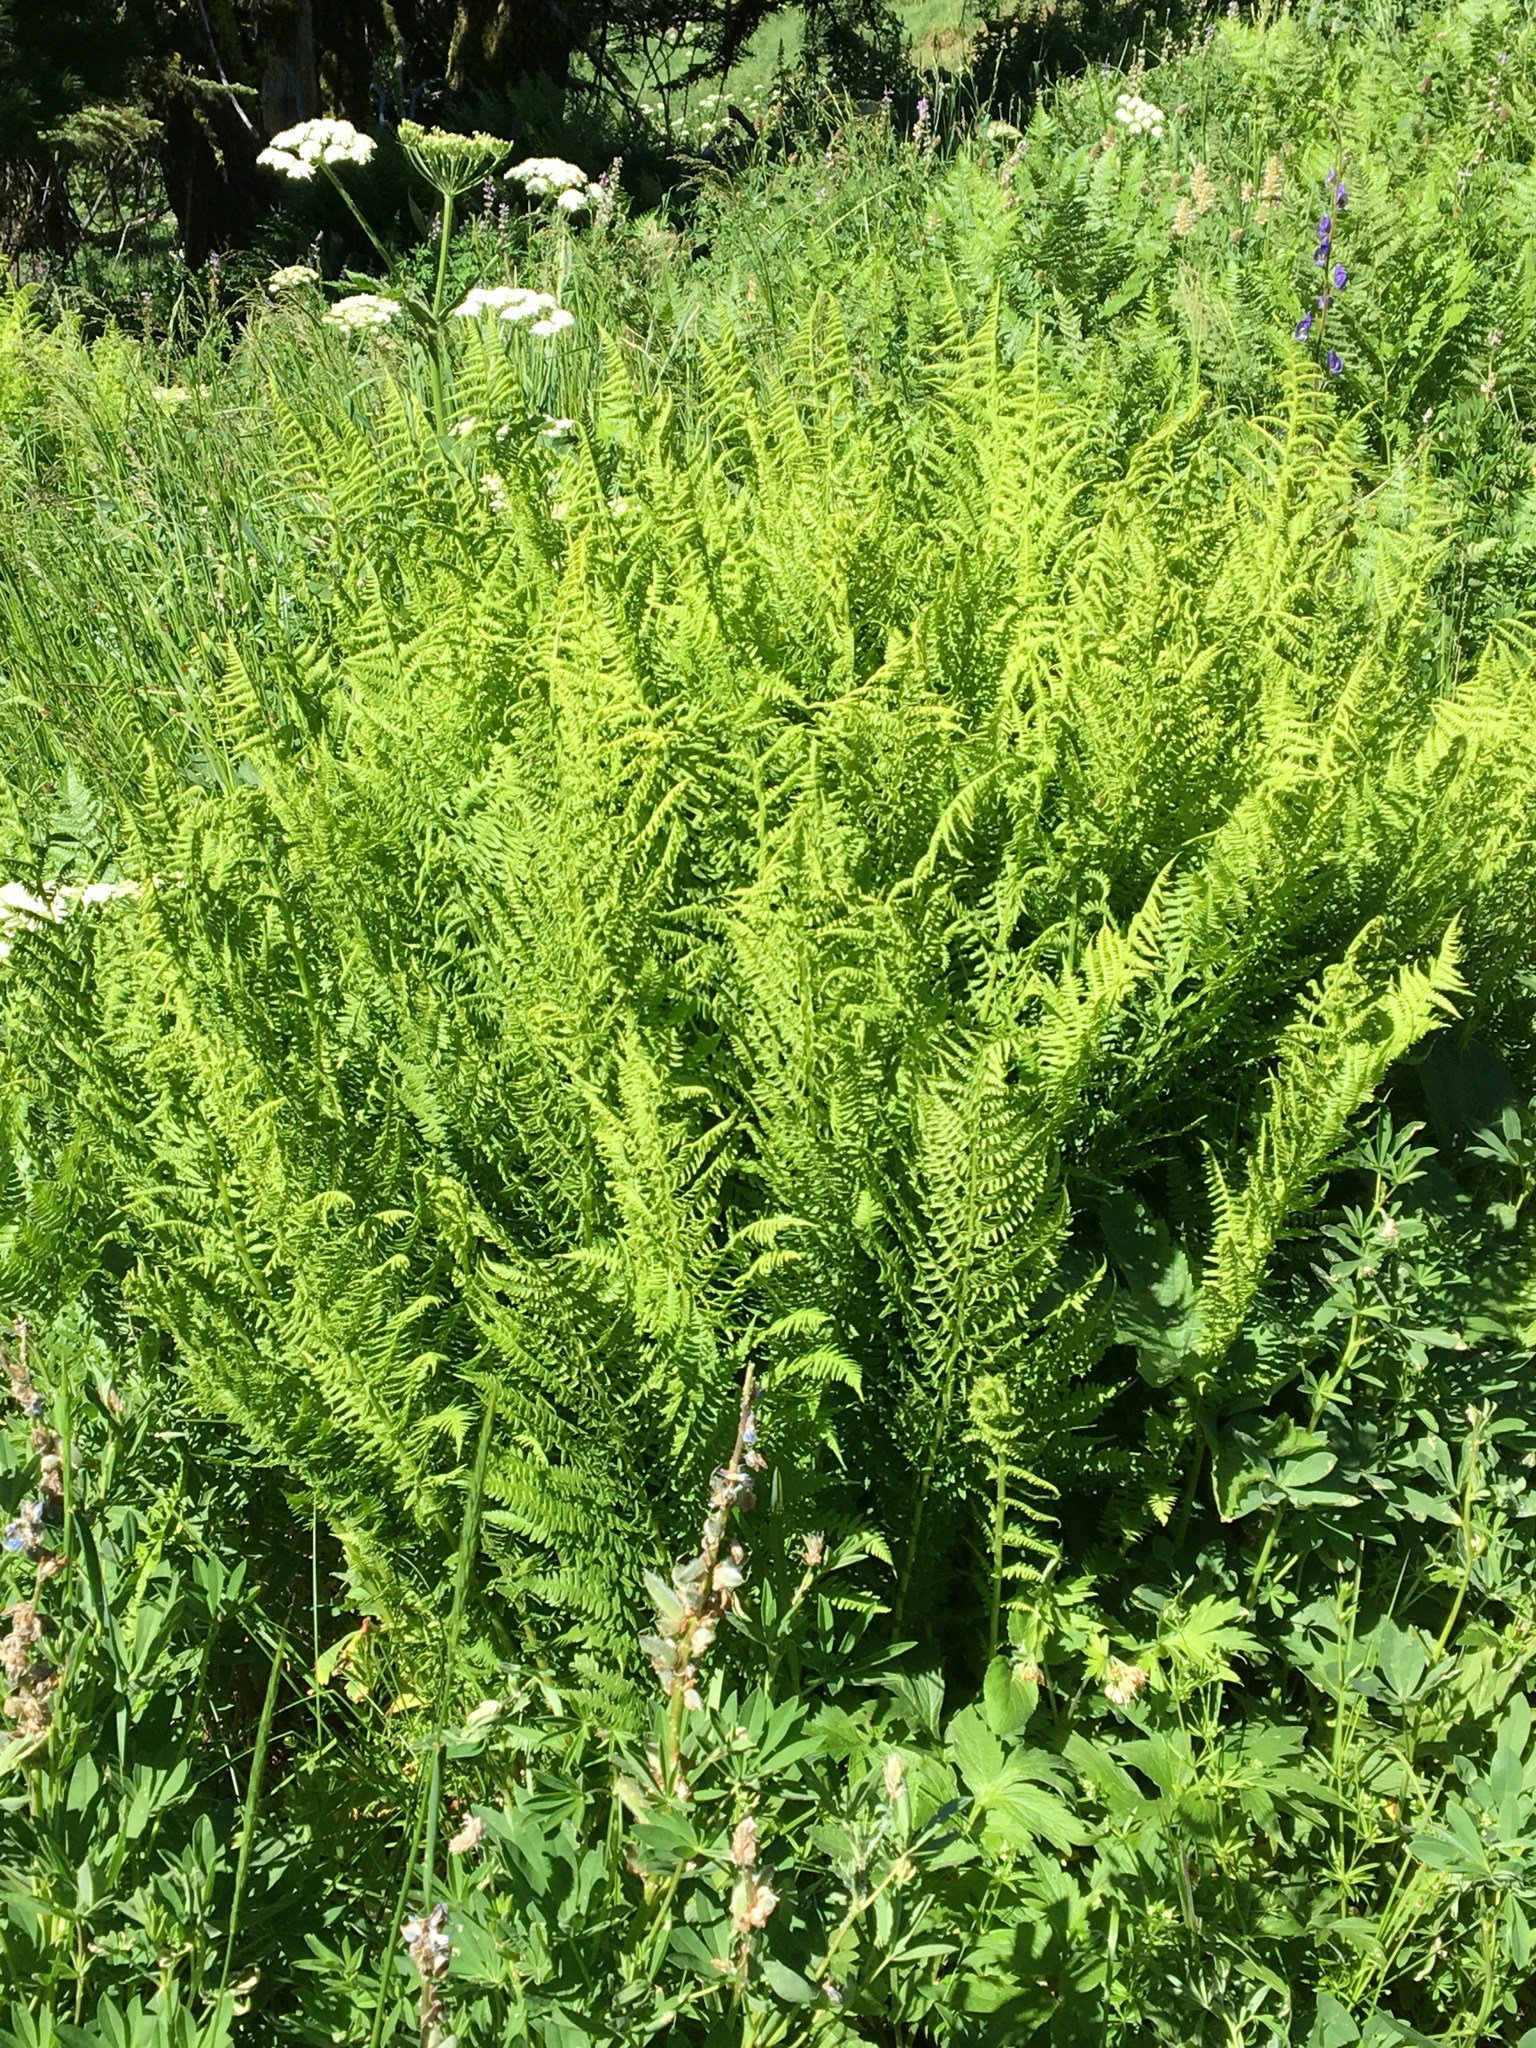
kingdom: Plantae
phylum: Tracheophyta
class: Polypodiopsida
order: Polypodiales
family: Athyriaceae
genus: Athyrium
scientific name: Athyrium filix-femina
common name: Lady fern
